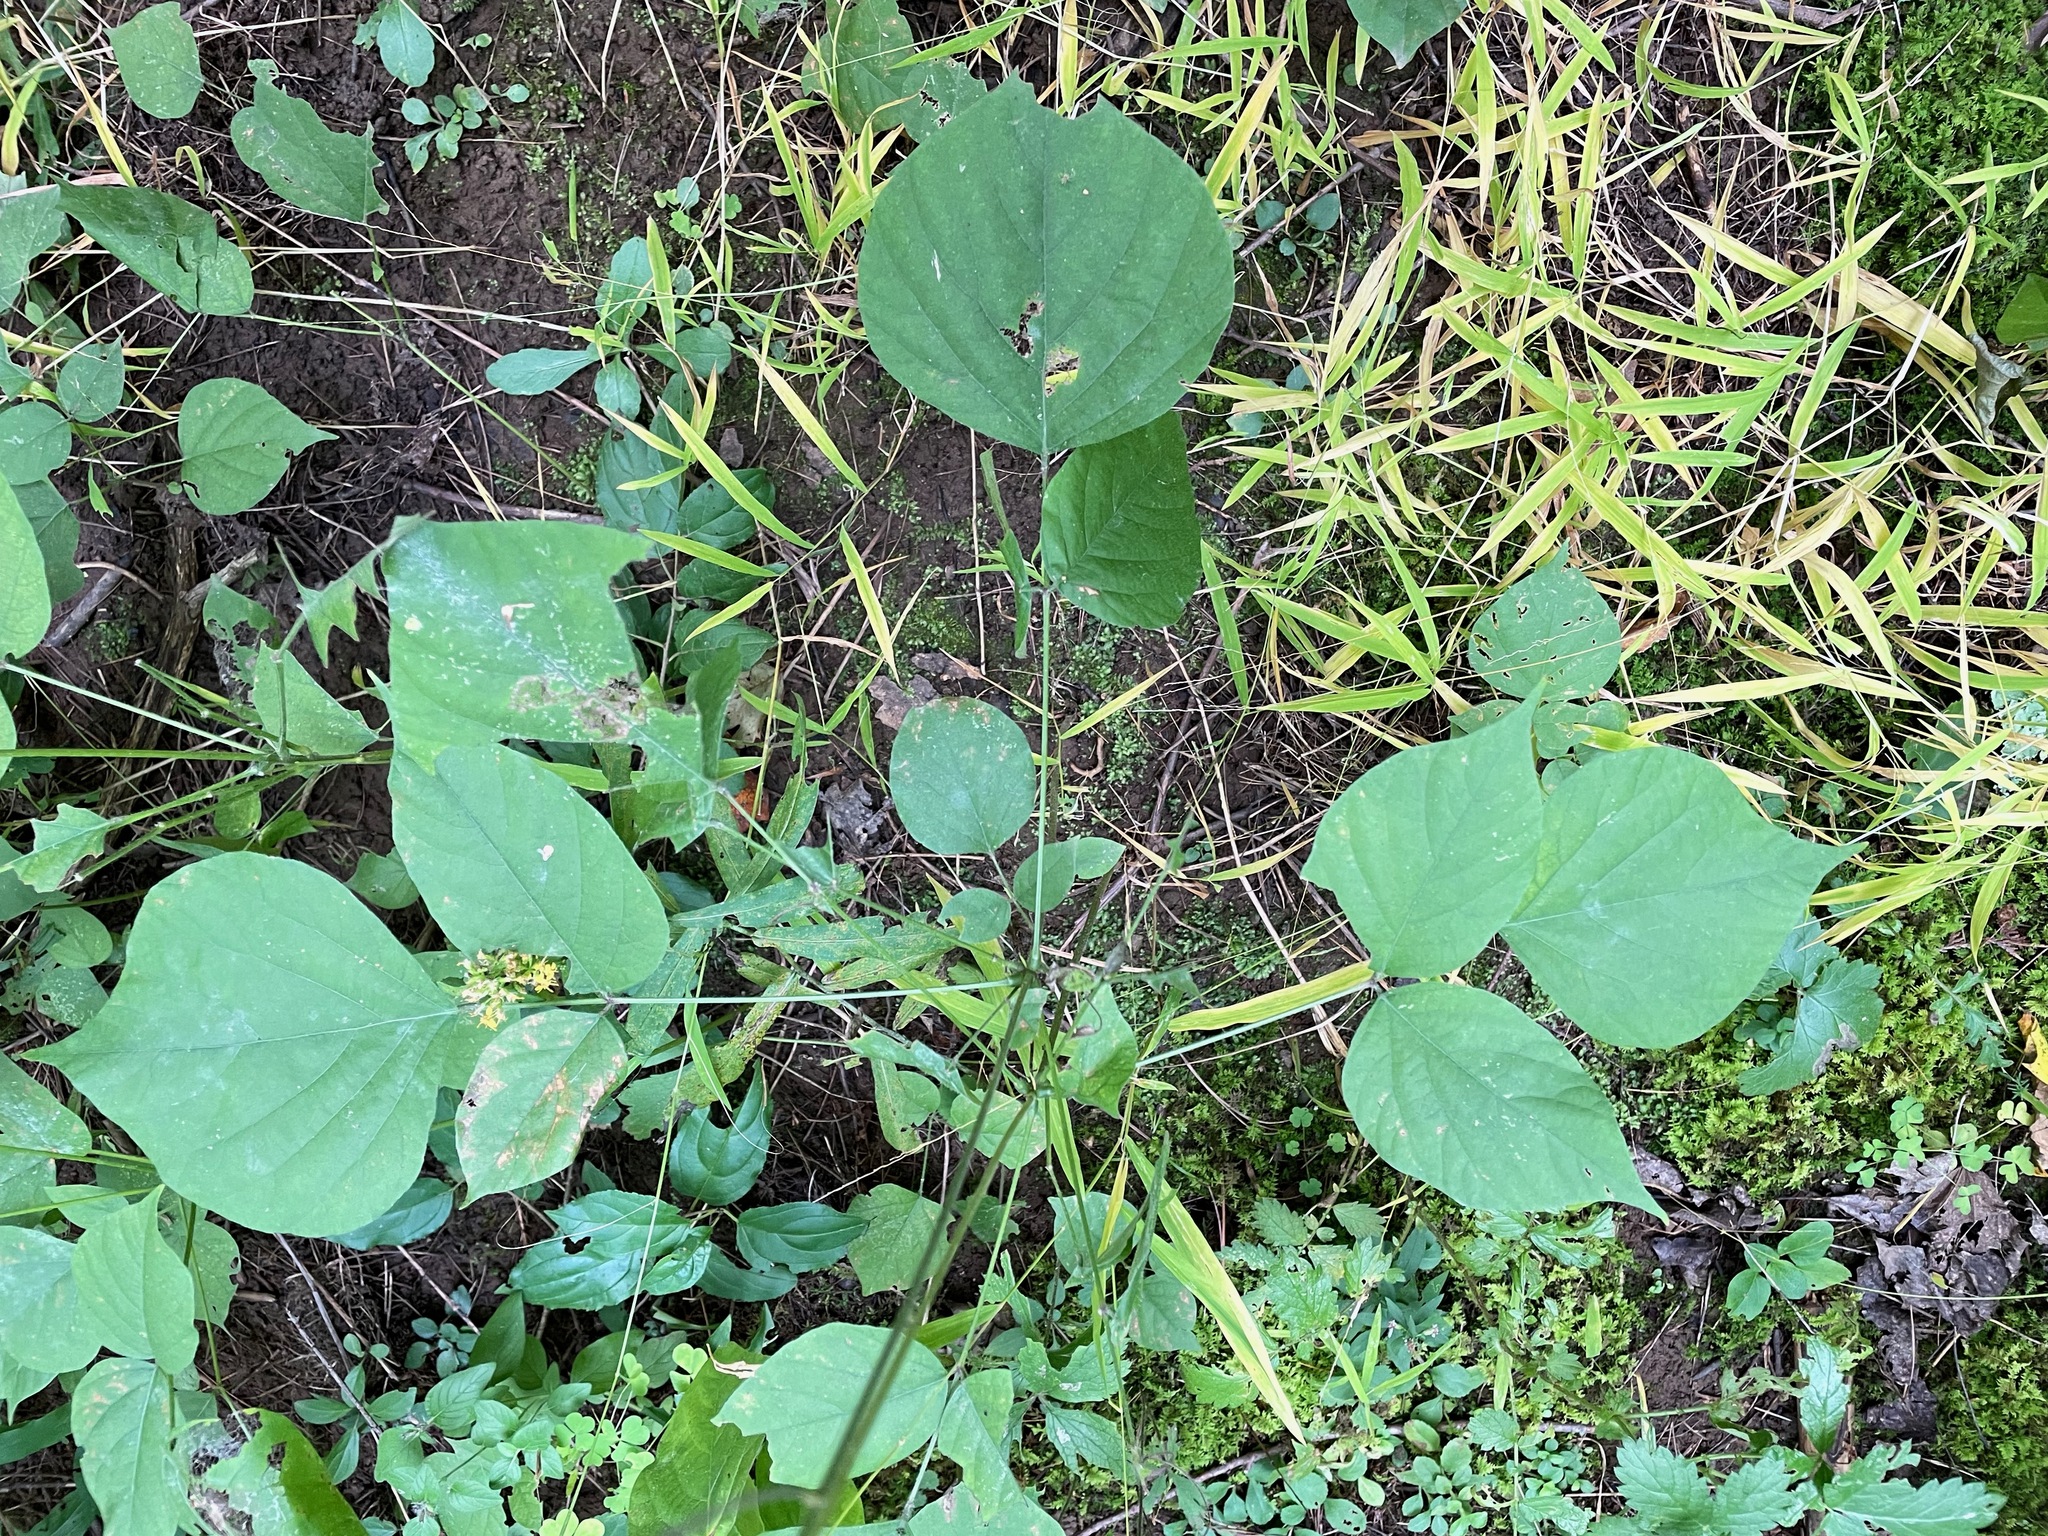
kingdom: Plantae
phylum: Tracheophyta
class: Magnoliopsida
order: Fabales
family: Fabaceae
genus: Hylodesmum
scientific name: Hylodesmum glutinosum
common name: Clustered-leaved tick-trefoil
